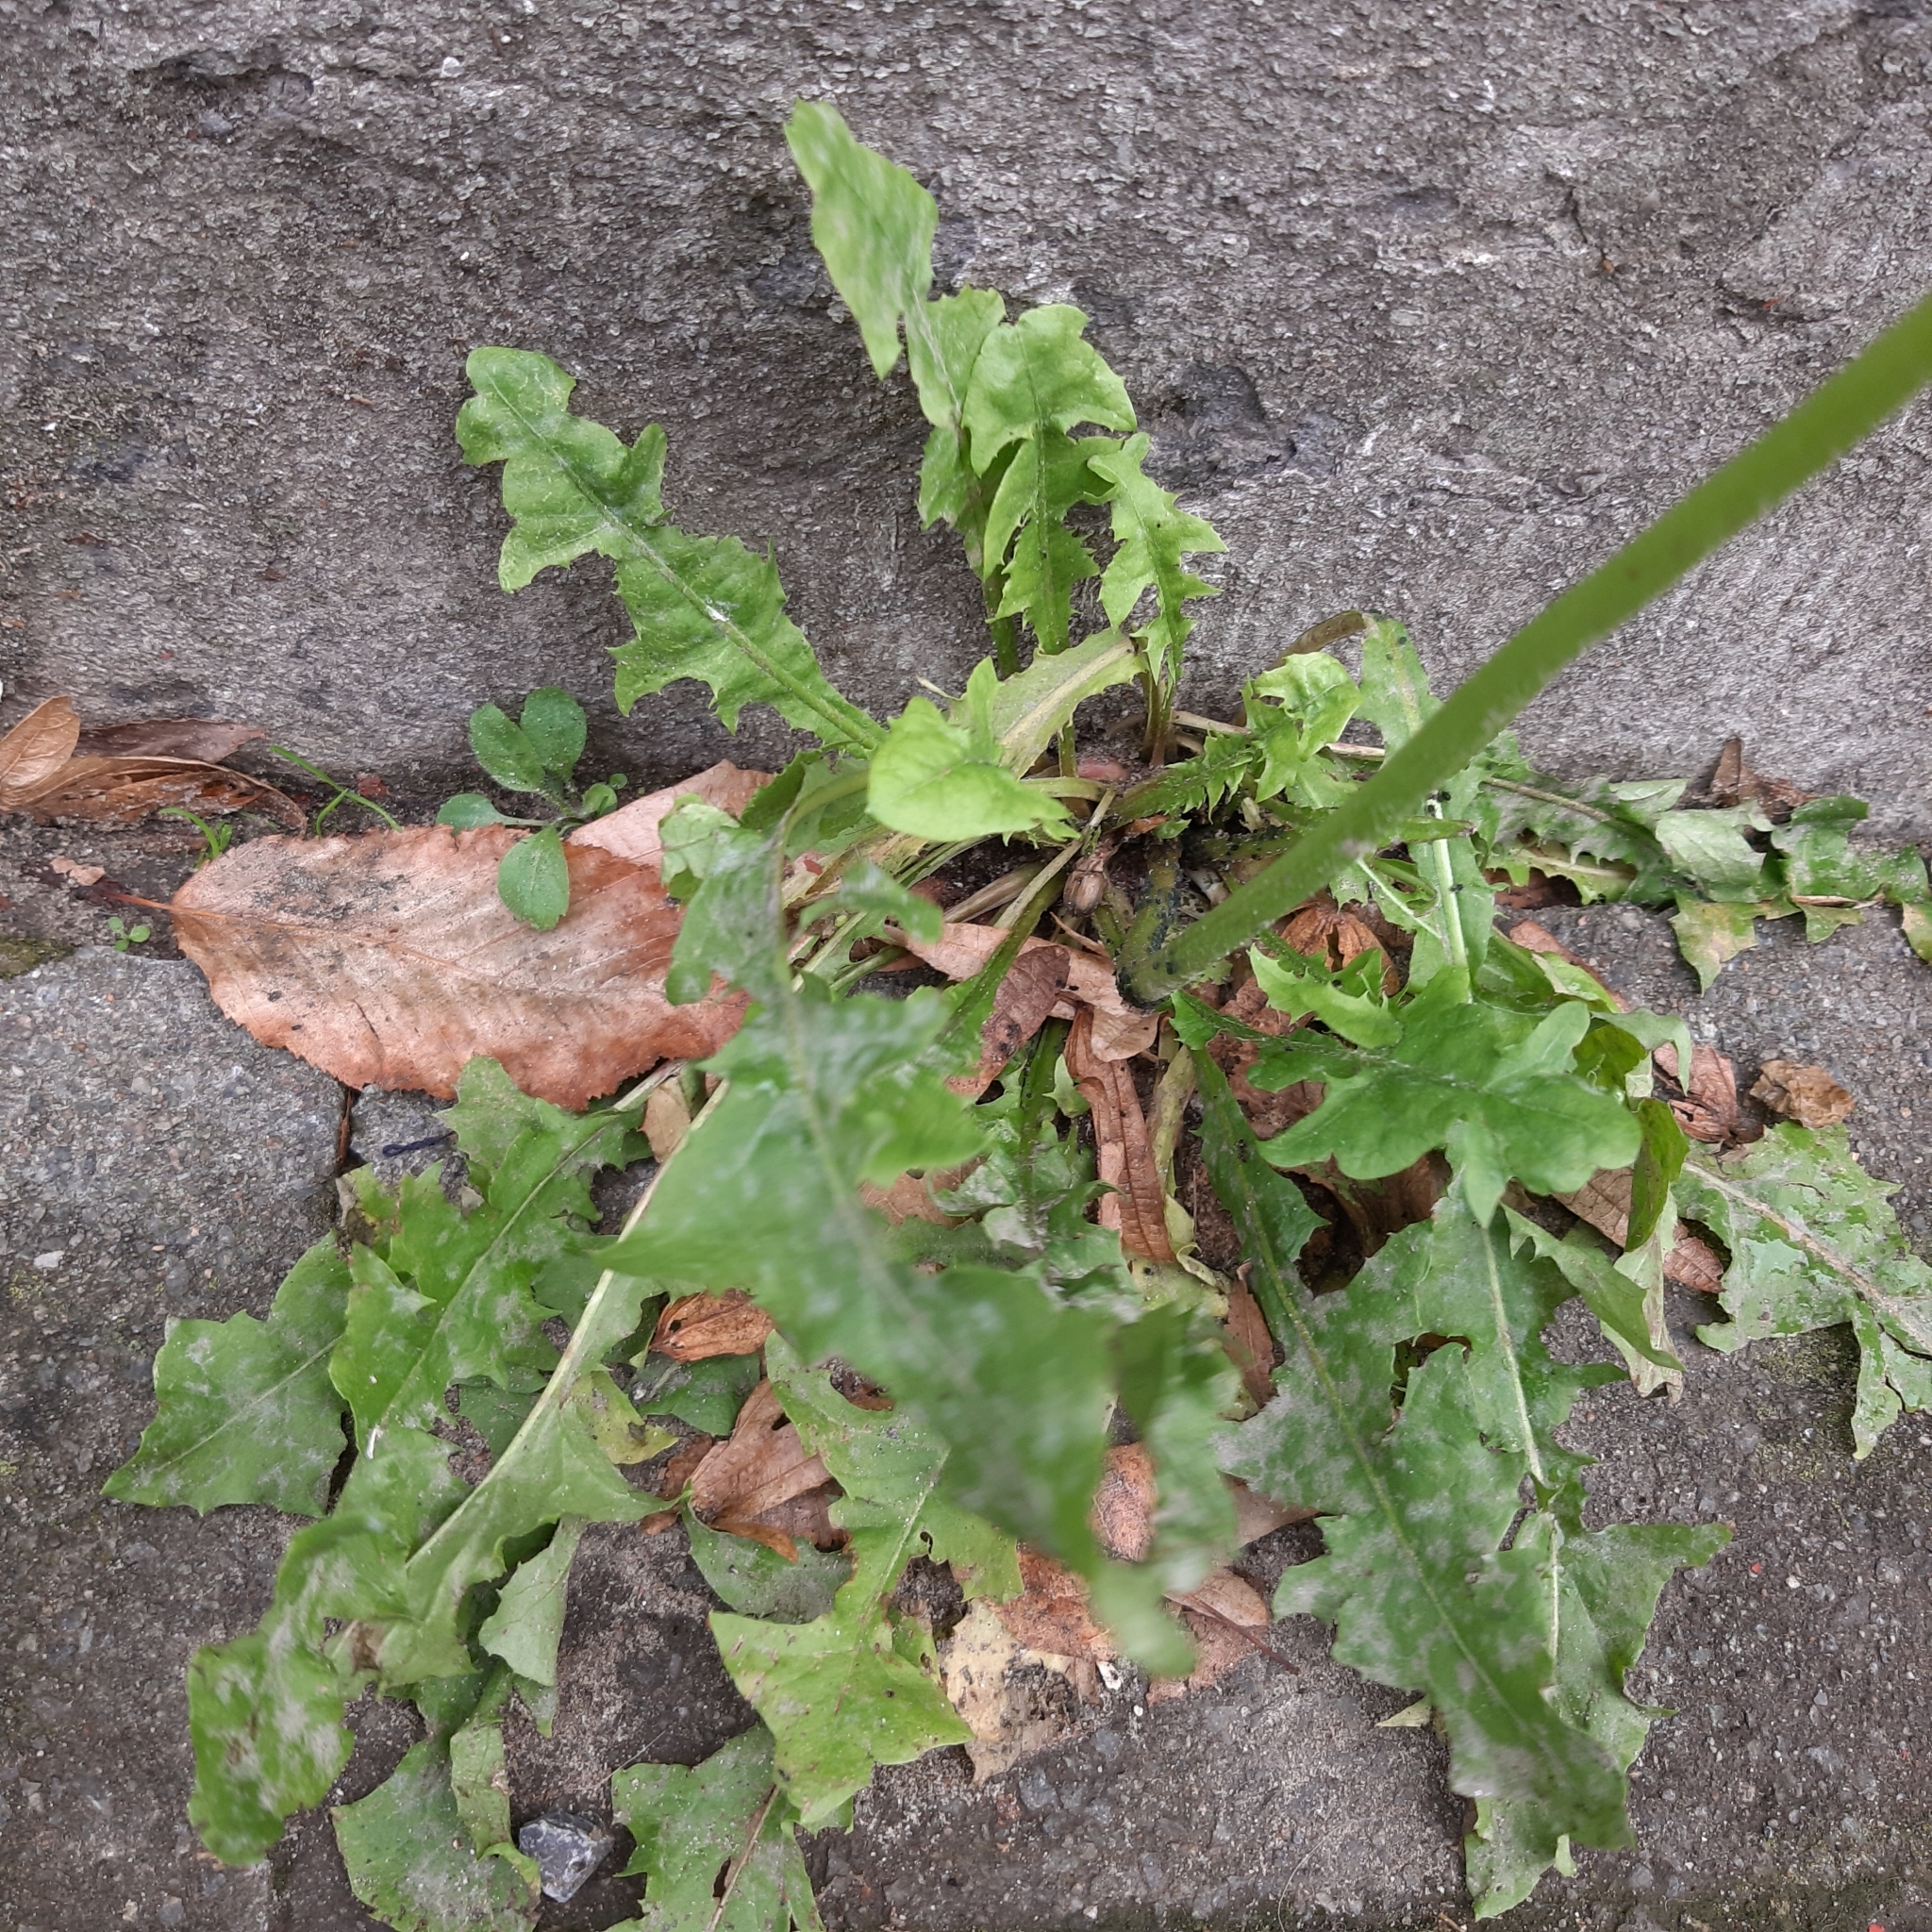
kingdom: Plantae
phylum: Tracheophyta
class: Magnoliopsida
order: Asterales
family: Asteraceae
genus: Taraxacum
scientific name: Taraxacum officinale
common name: Common dandelion
